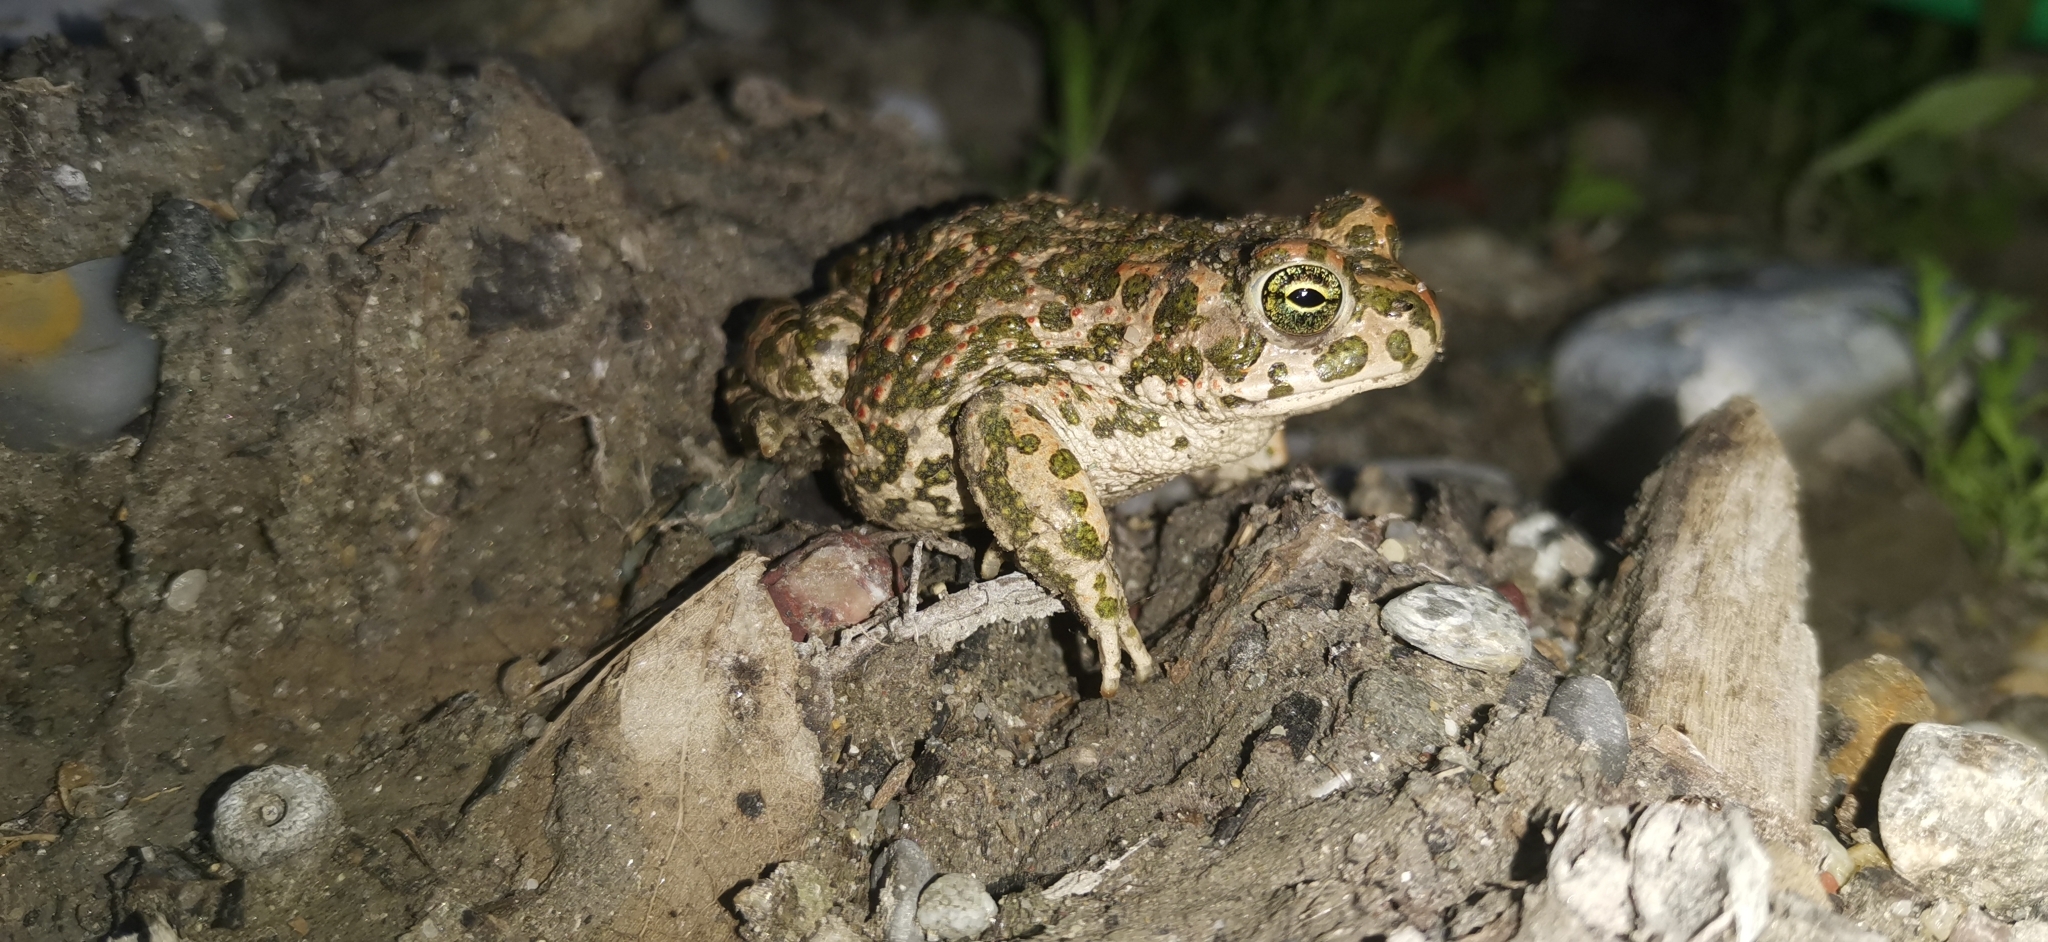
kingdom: Animalia
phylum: Chordata
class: Amphibia
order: Anura
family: Bufonidae
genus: Bufotes
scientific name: Bufotes viridis
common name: European green toad
